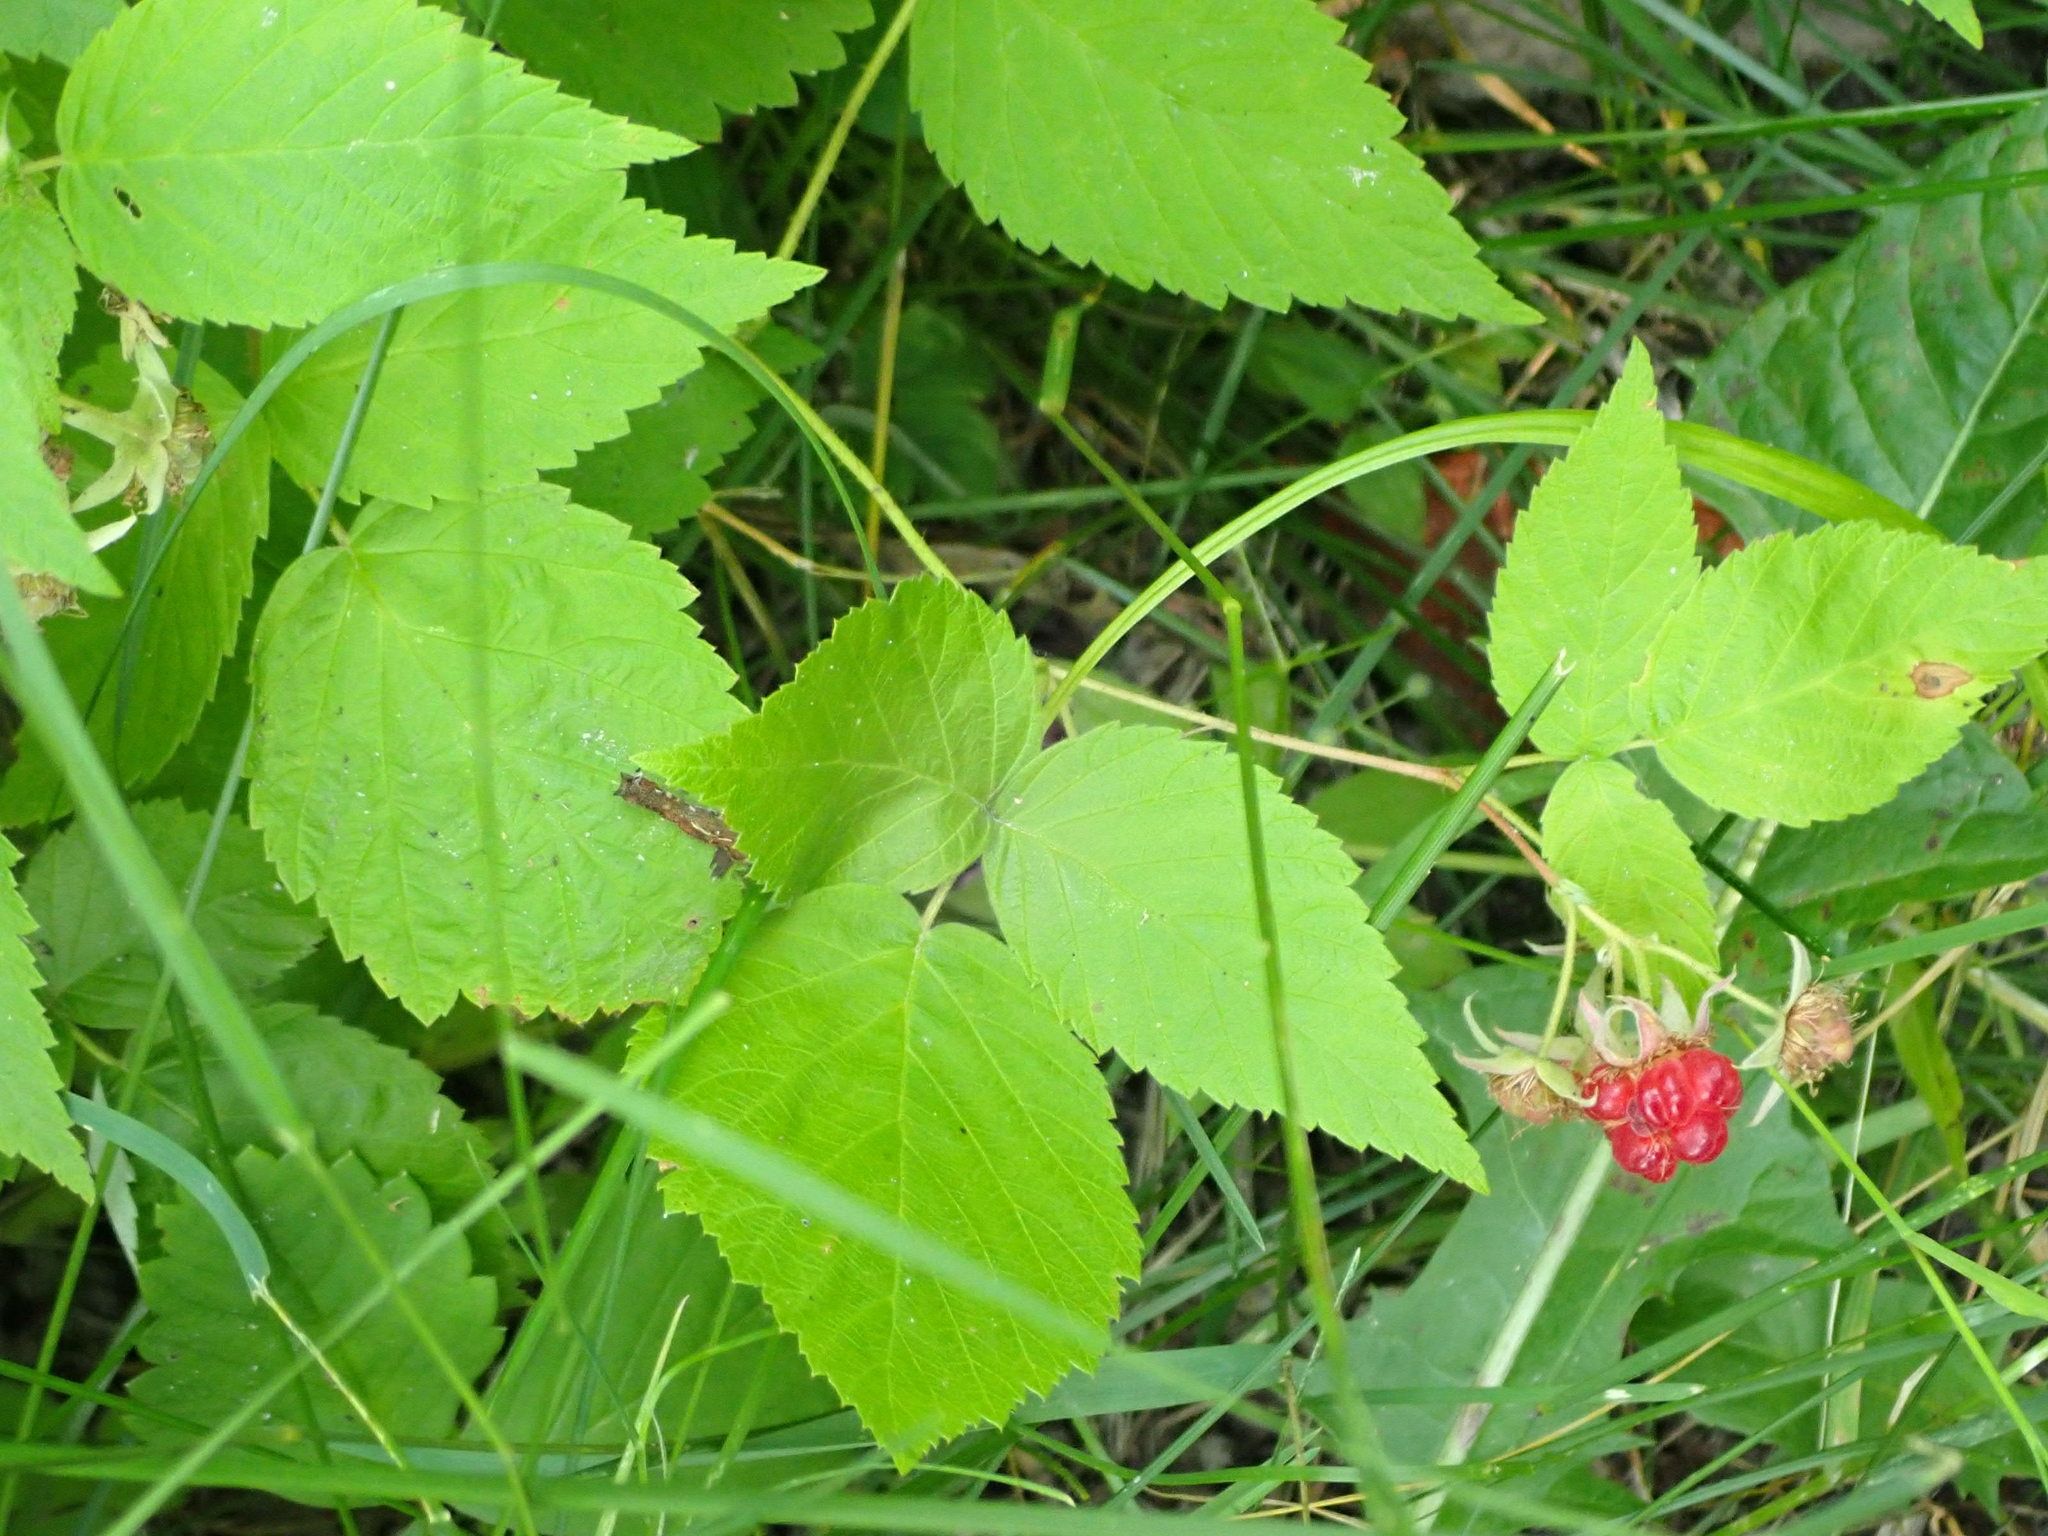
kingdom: Plantae
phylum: Tracheophyta
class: Magnoliopsida
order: Rosales
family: Rosaceae
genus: Rubus
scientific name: Rubus idaeus
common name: Raspberry
